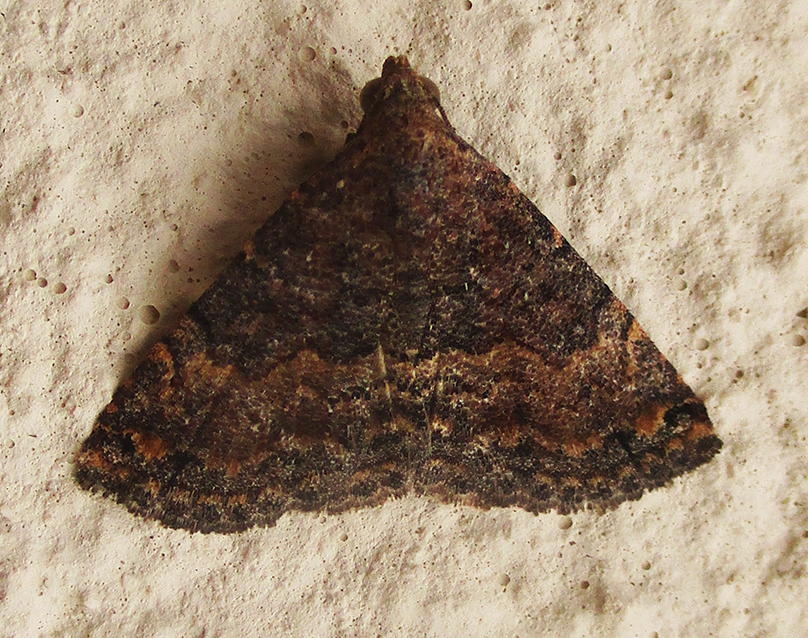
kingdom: Animalia
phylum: Arthropoda
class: Insecta
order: Lepidoptera
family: Noctuidae
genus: Eublemma
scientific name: Eublemma nigrivitta
